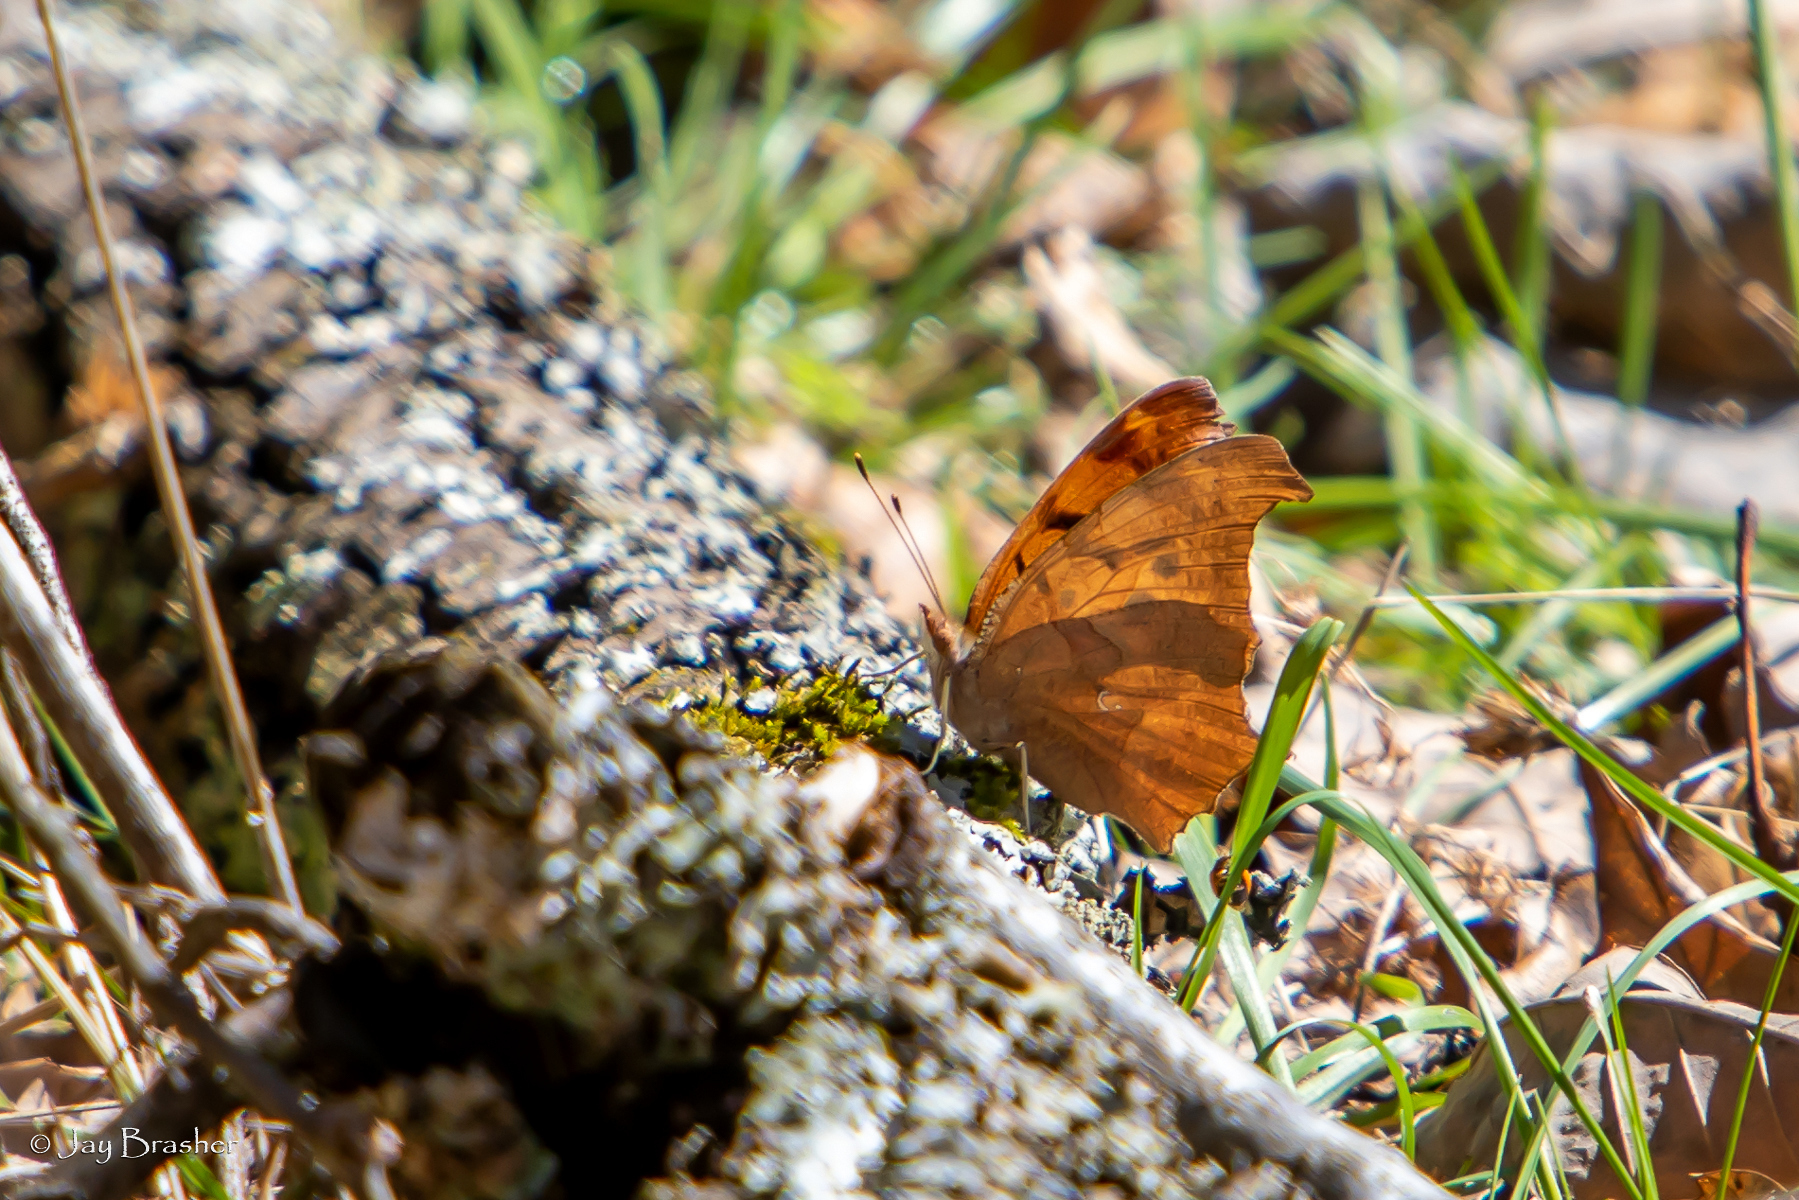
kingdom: Animalia
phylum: Arthropoda
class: Insecta
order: Lepidoptera
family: Nymphalidae
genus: Polygonia
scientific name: Polygonia interrogationis
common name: Question mark
